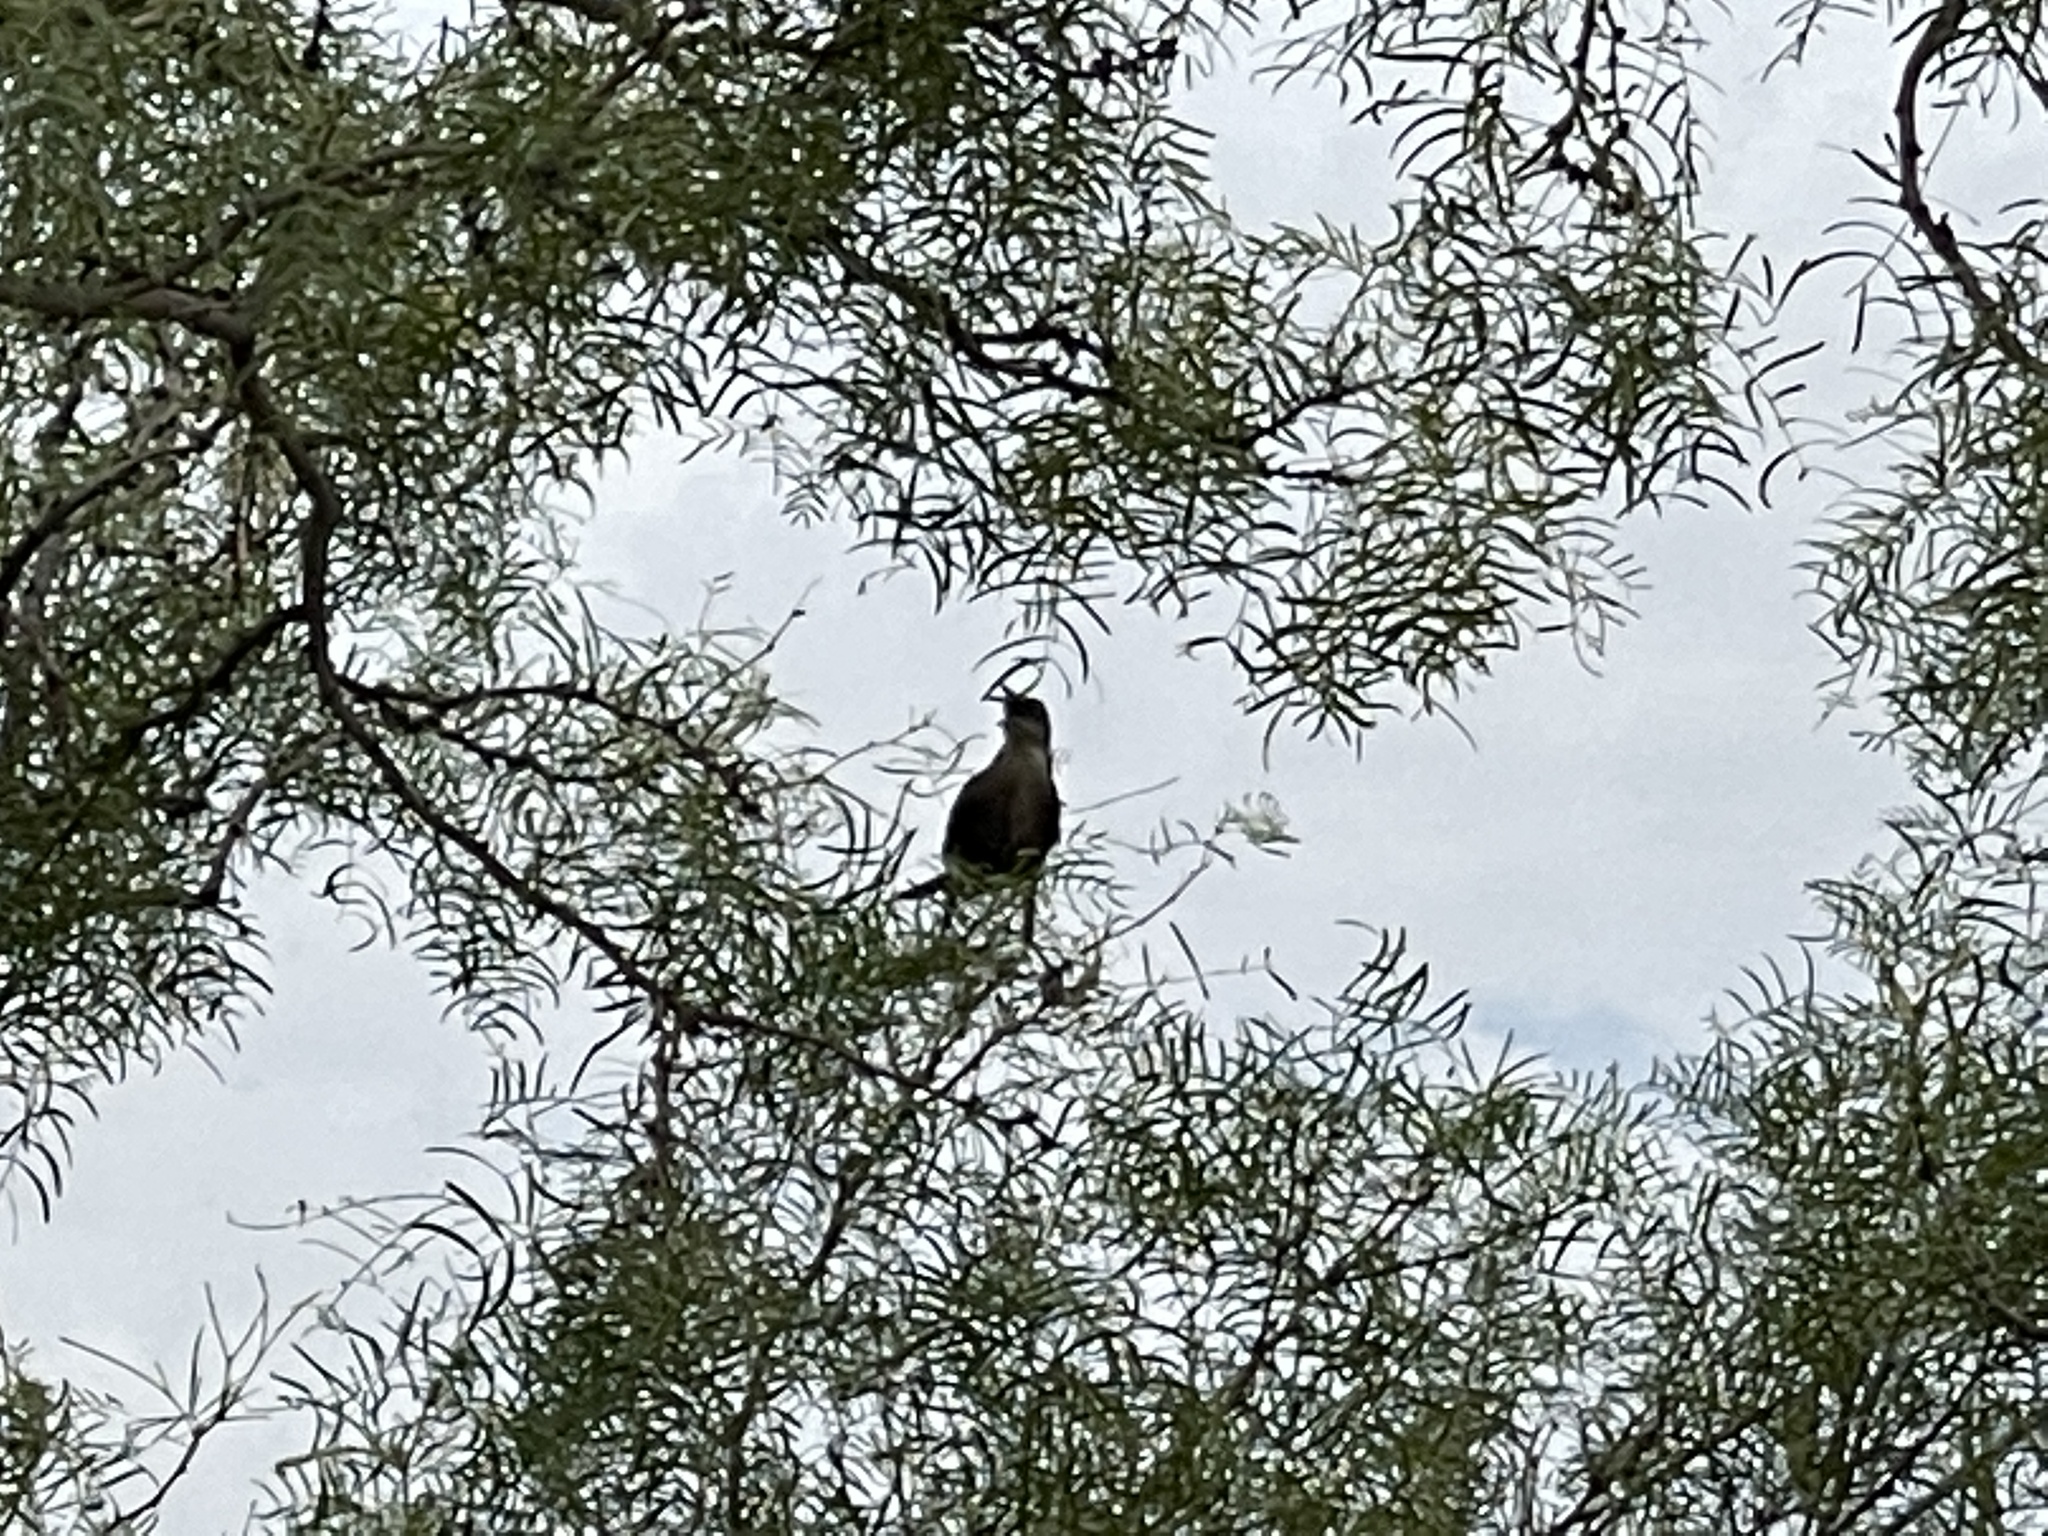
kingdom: Animalia
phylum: Chordata
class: Aves
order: Passeriformes
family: Icteridae
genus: Quiscalus
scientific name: Quiscalus mexicanus
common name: Great-tailed grackle
